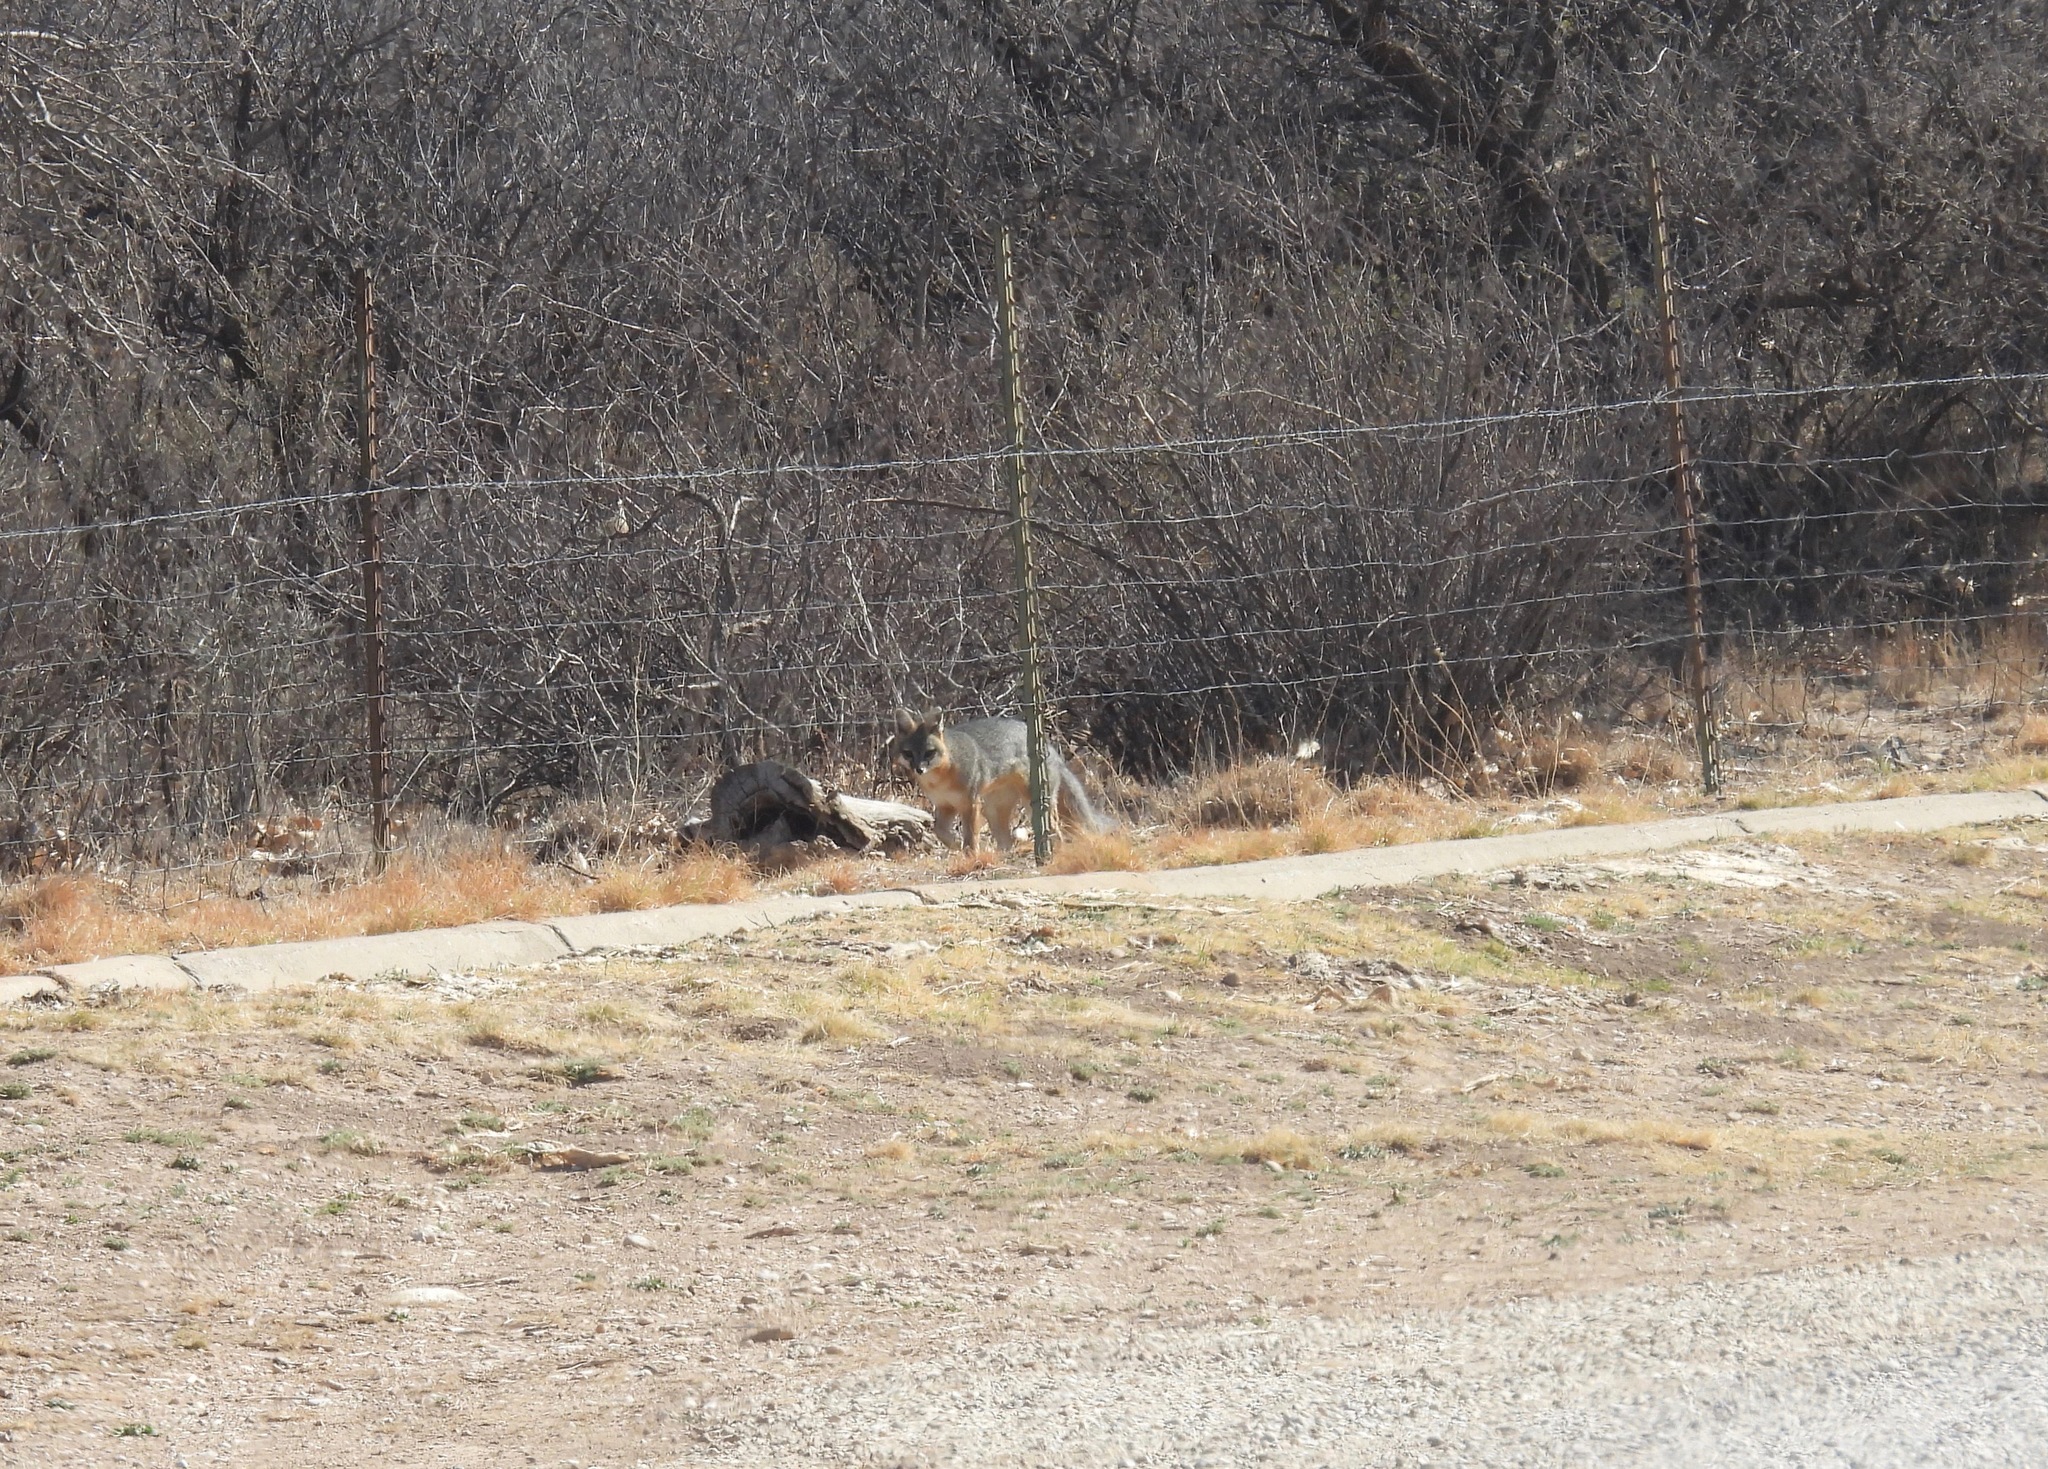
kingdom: Animalia
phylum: Chordata
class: Mammalia
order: Carnivora
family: Canidae
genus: Urocyon
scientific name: Urocyon cinereoargenteus
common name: Gray fox
